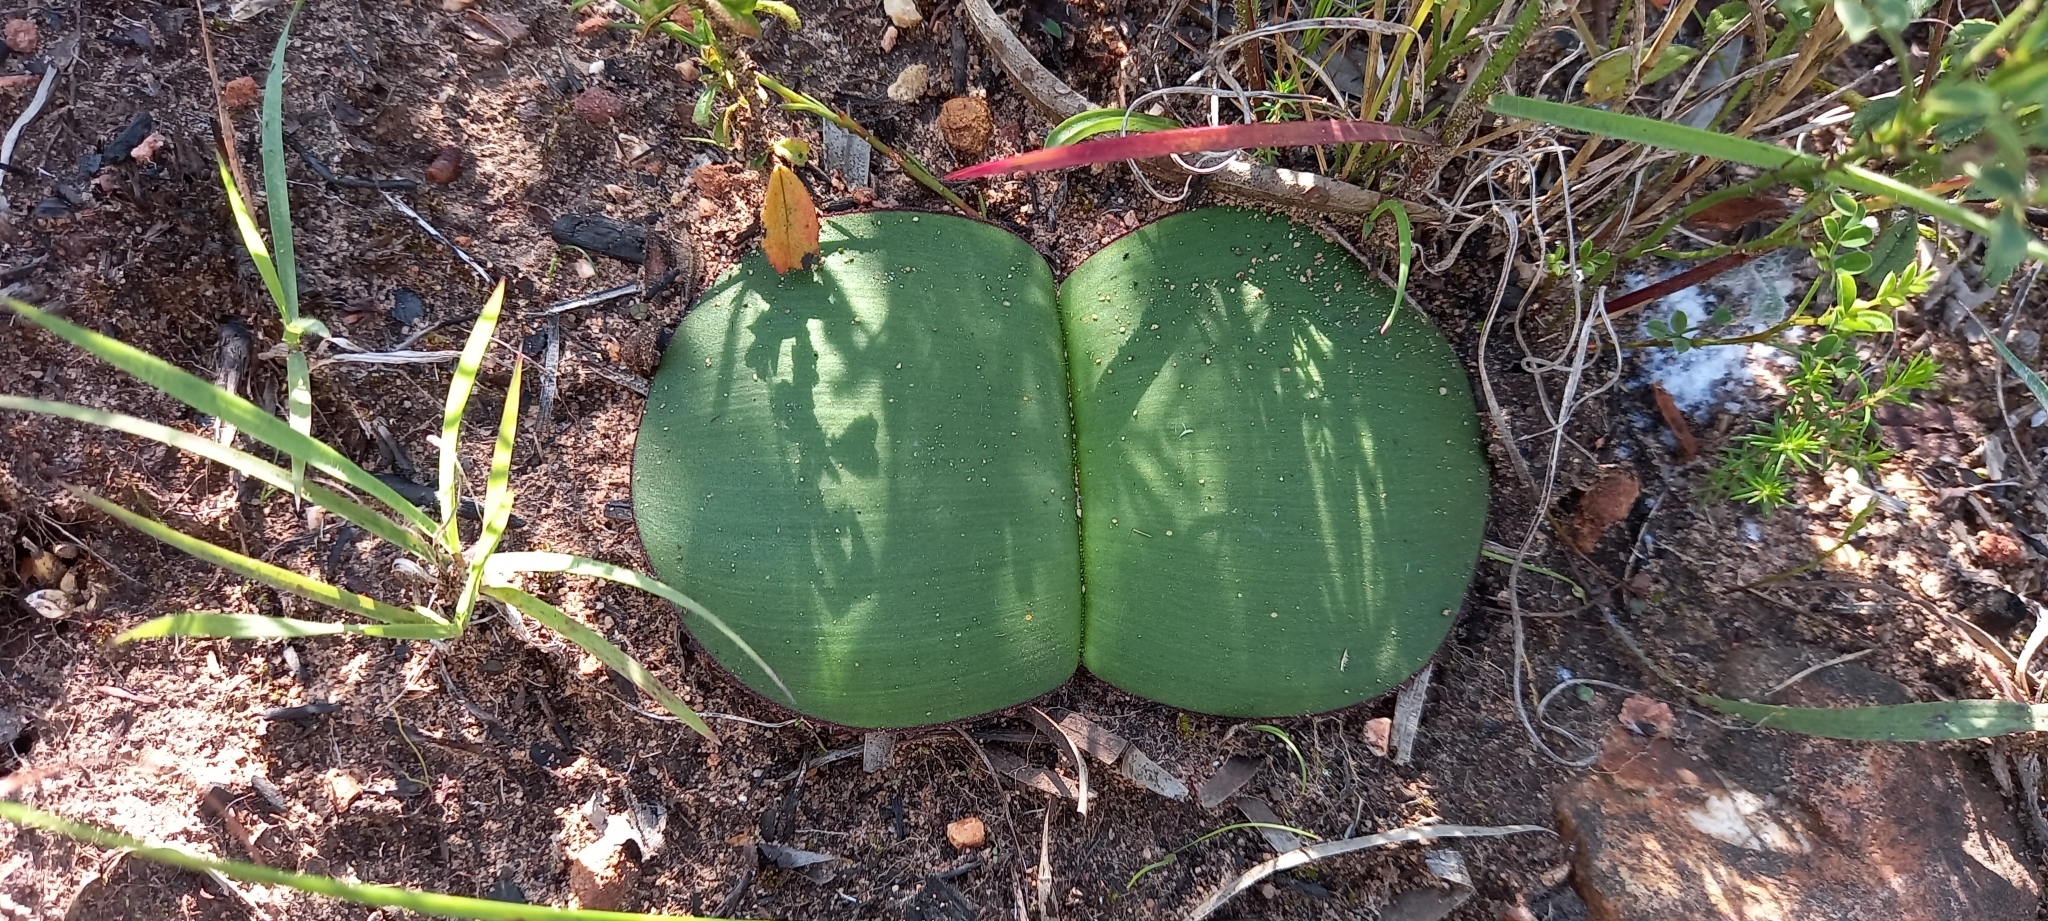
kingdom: Plantae
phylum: Tracheophyta
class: Liliopsida
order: Asparagales
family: Amaryllidaceae
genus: Haemanthus
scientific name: Haemanthus sanguineus
